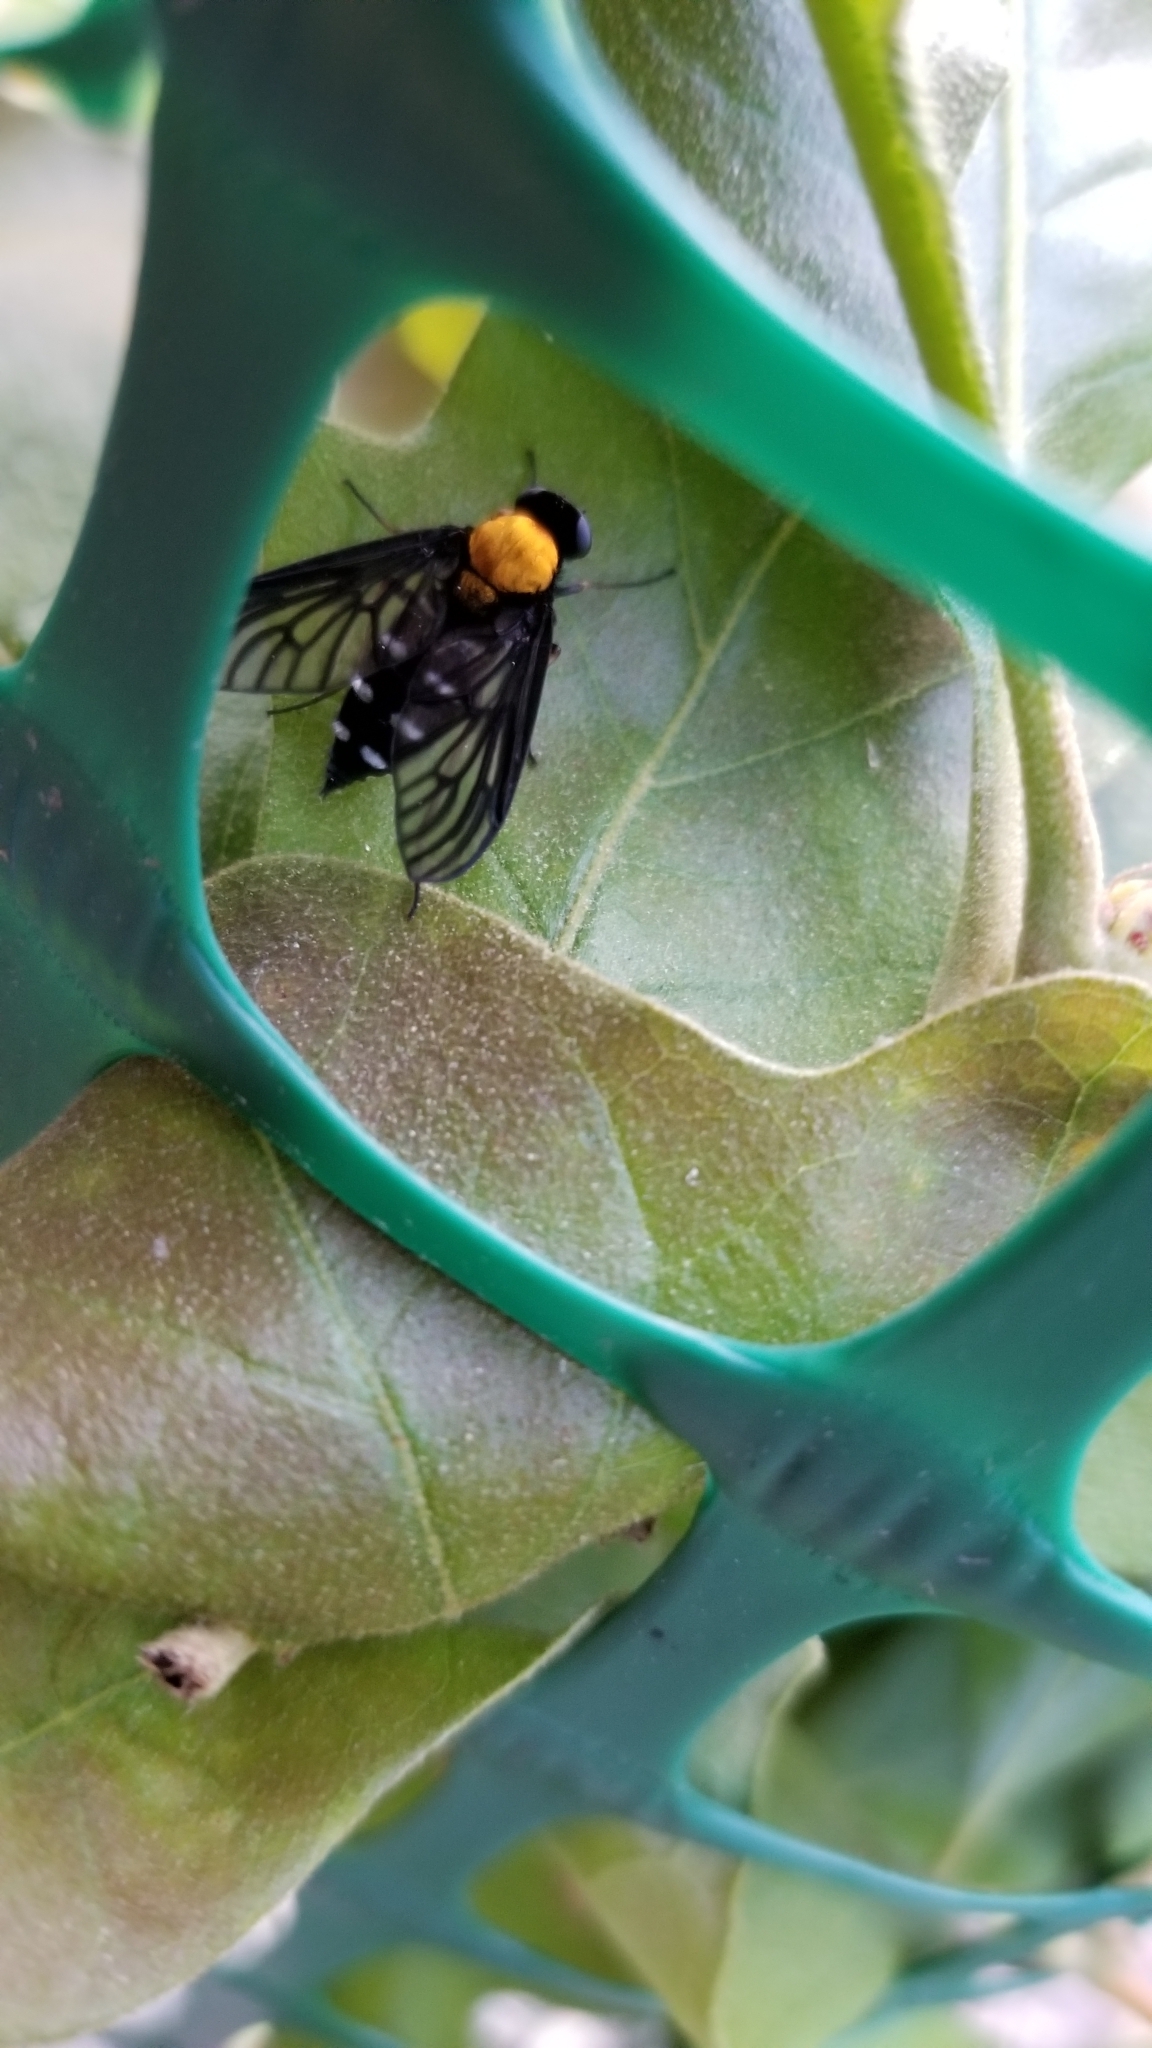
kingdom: Animalia
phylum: Arthropoda
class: Insecta
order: Diptera
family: Rhagionidae
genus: Chrysopilus
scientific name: Chrysopilus thoracicus
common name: Golden-backed snipe fly
